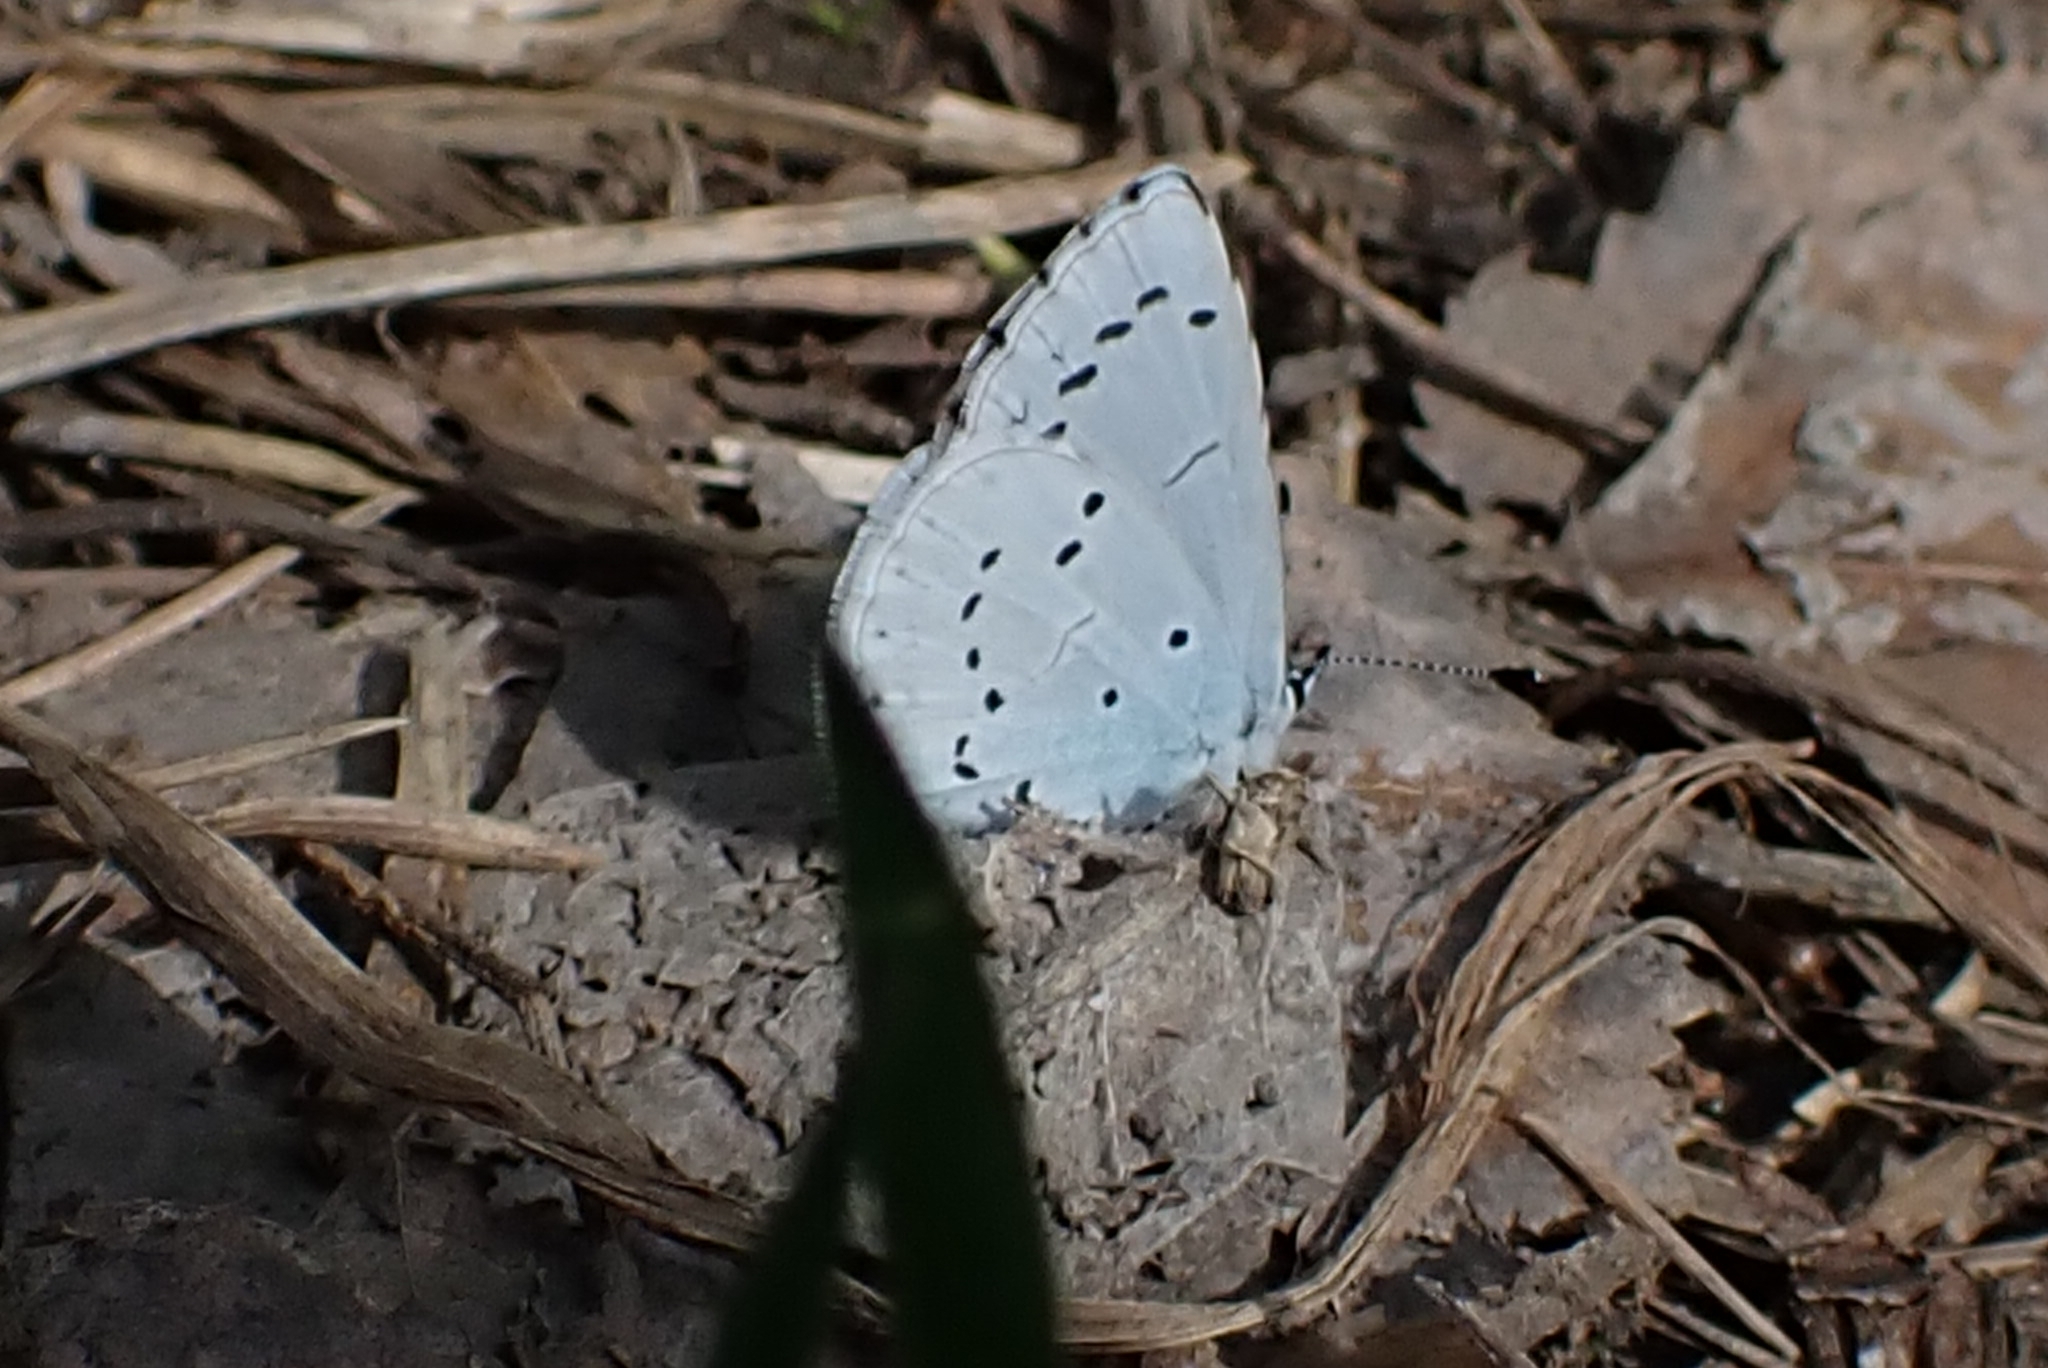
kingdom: Animalia
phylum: Arthropoda
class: Insecta
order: Lepidoptera
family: Lycaenidae
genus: Celastrina
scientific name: Celastrina argiolus
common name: Holly blue
